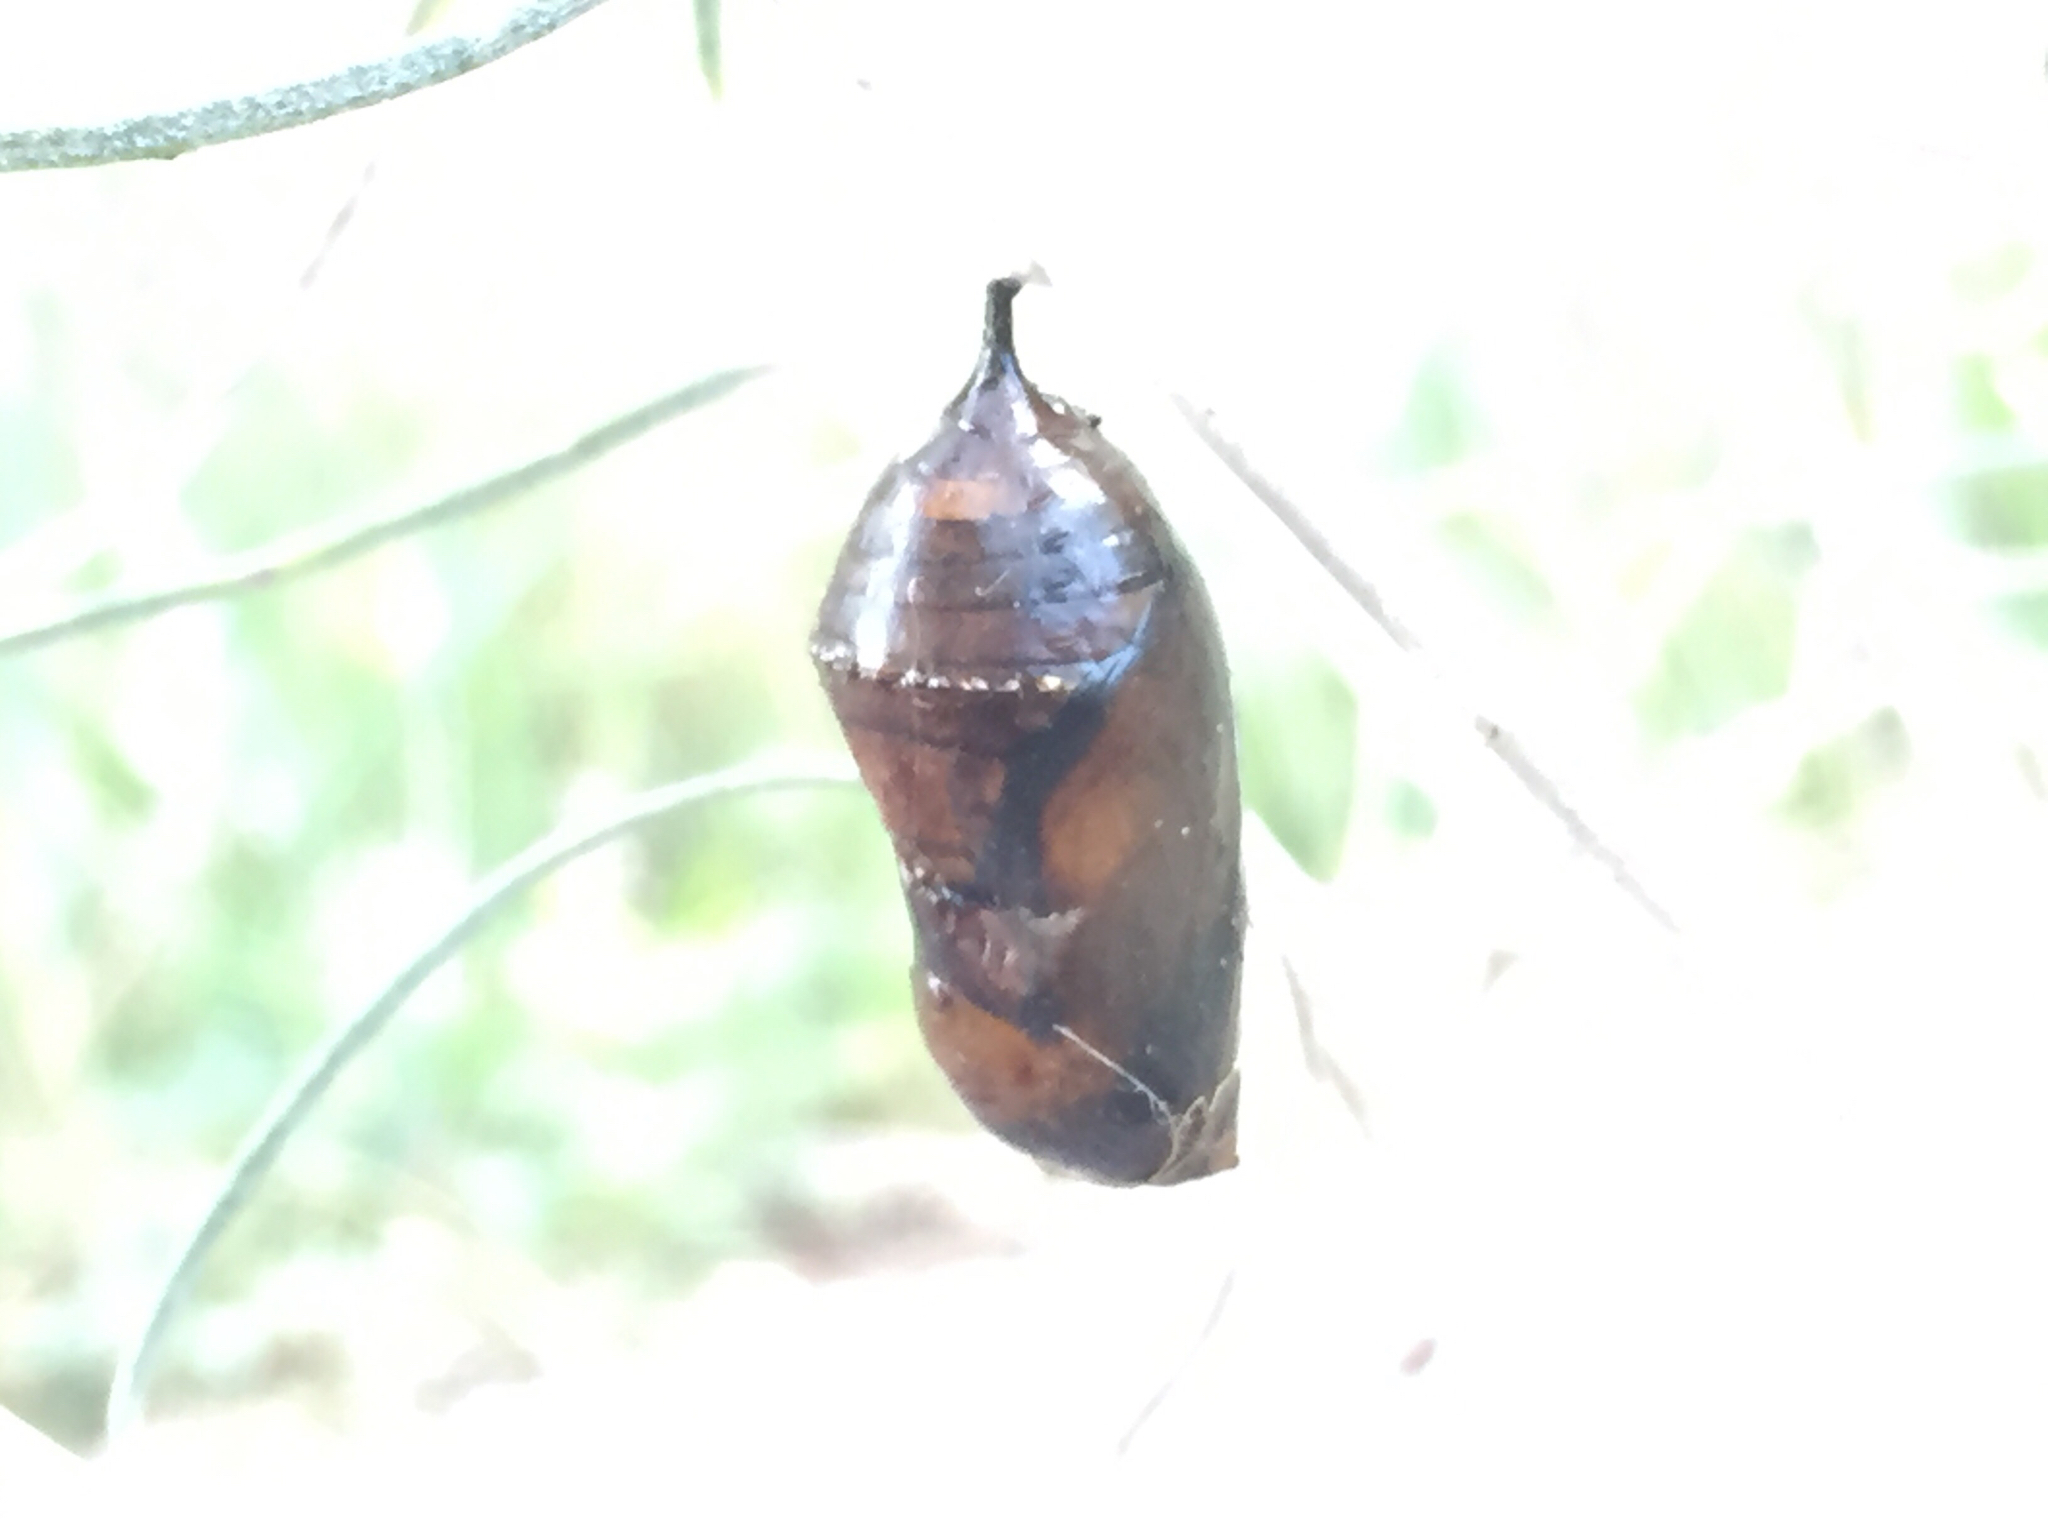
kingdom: Animalia
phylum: Arthropoda
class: Insecta
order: Lepidoptera
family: Nymphalidae
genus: Danaus
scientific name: Danaus plexippus
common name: Monarch
